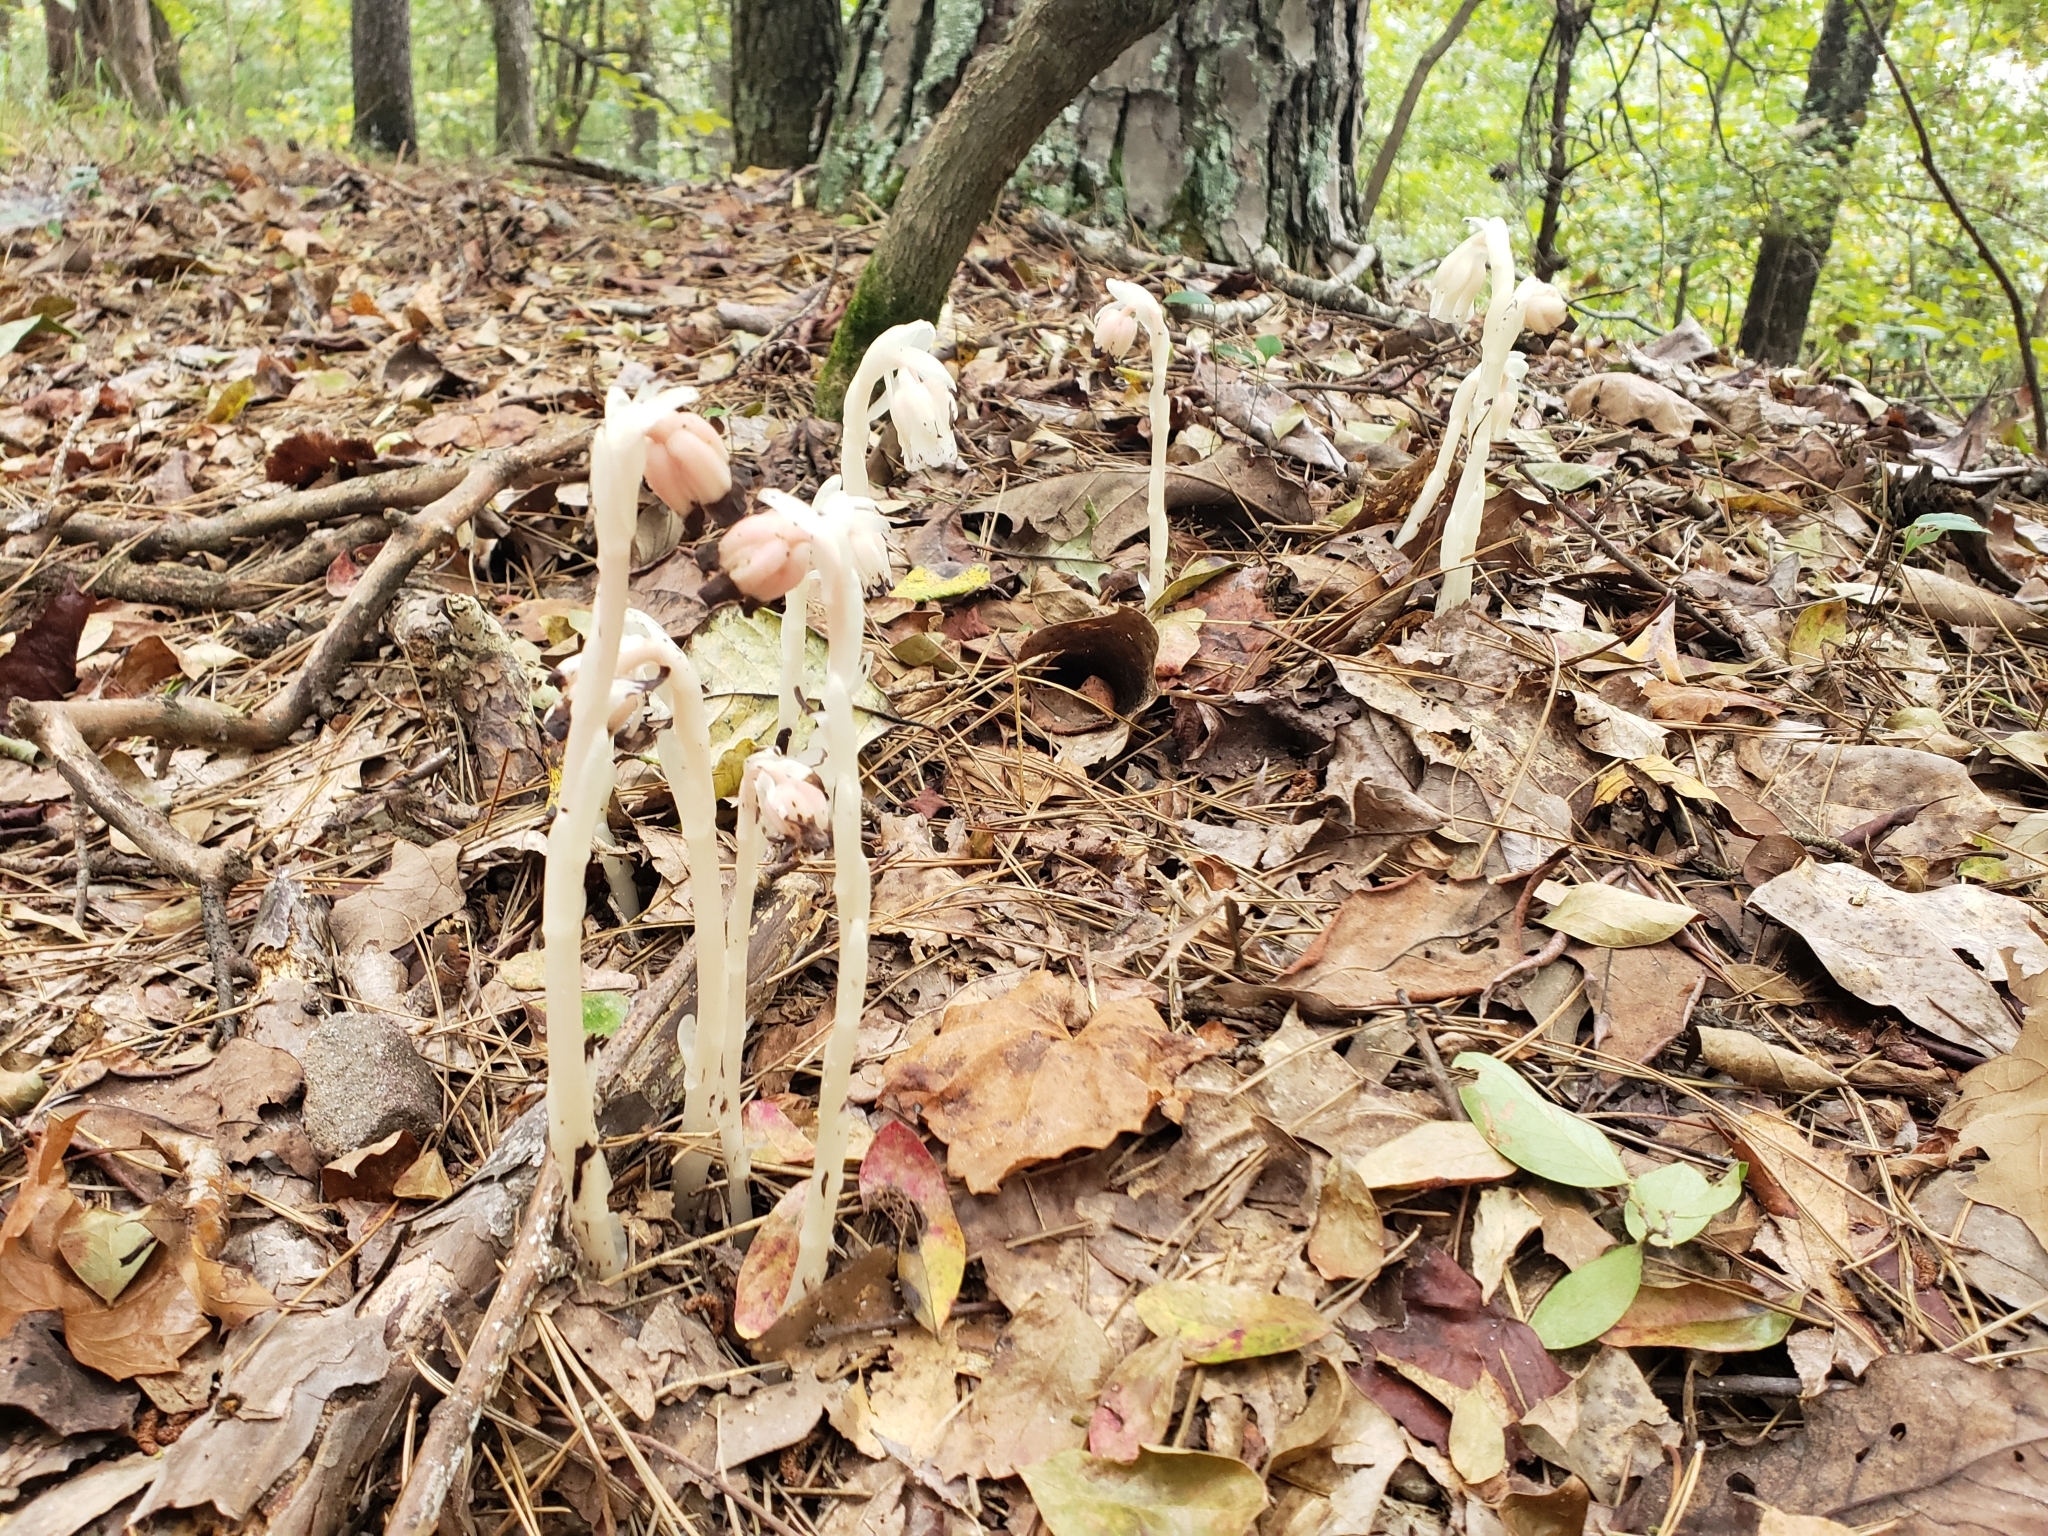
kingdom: Plantae
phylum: Tracheophyta
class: Magnoliopsida
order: Ericales
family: Ericaceae
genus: Monotropa
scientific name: Monotropa uniflora
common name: Convulsion root
